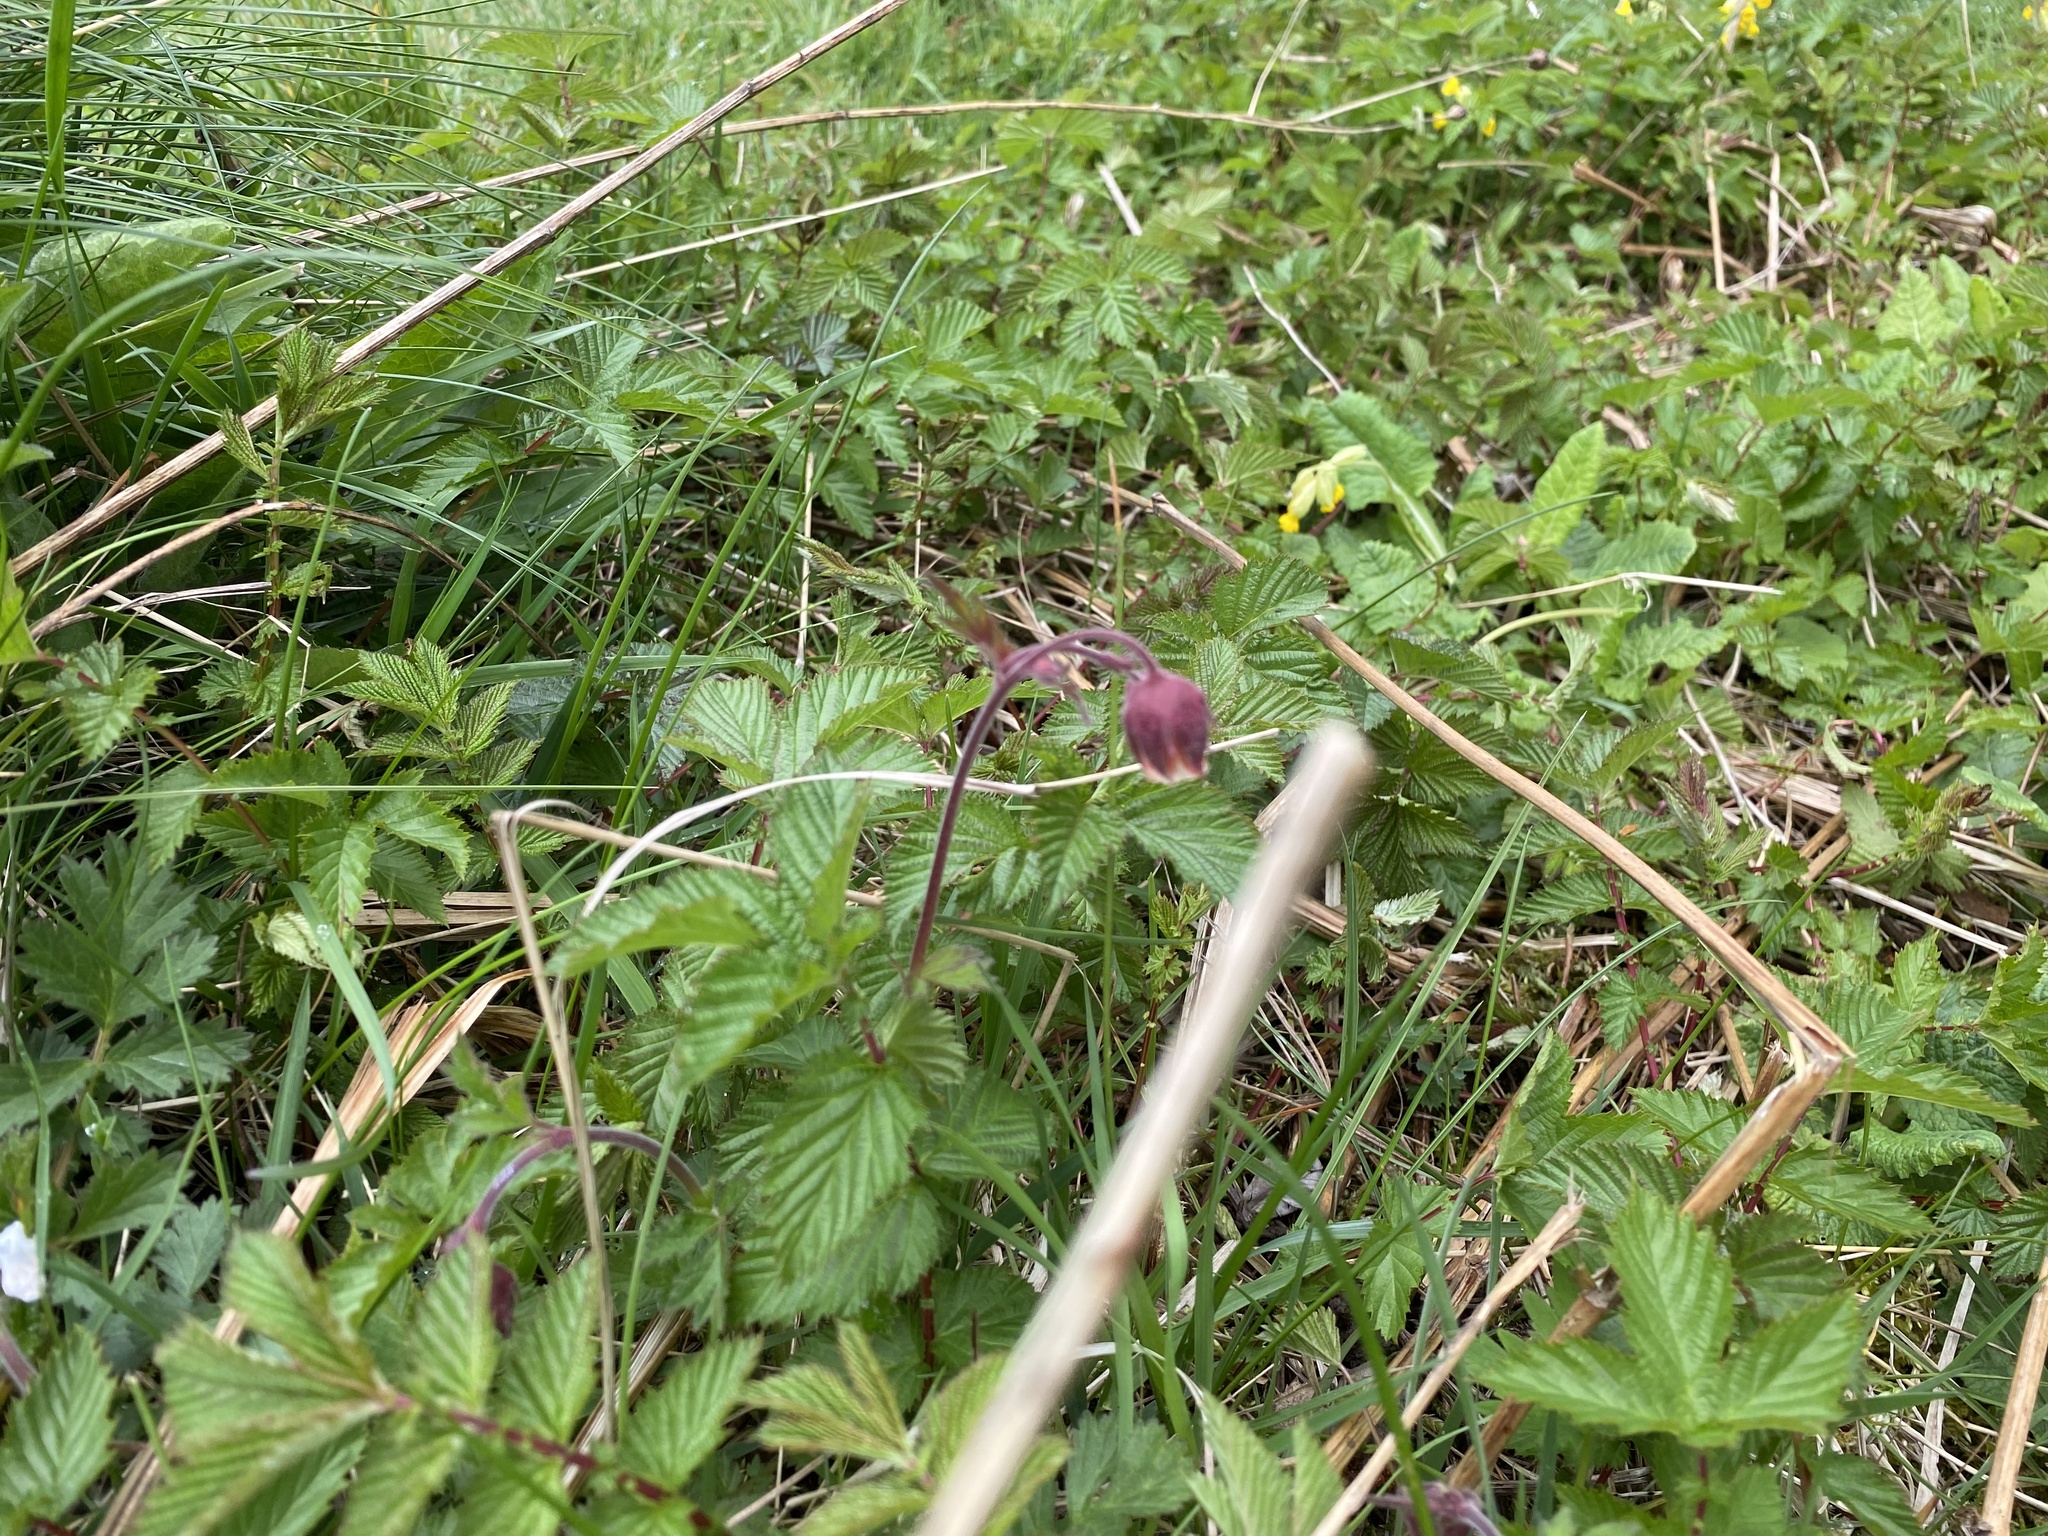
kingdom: Plantae
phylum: Tracheophyta
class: Magnoliopsida
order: Rosales
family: Rosaceae
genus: Geum
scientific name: Geum rivale
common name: Water avens
